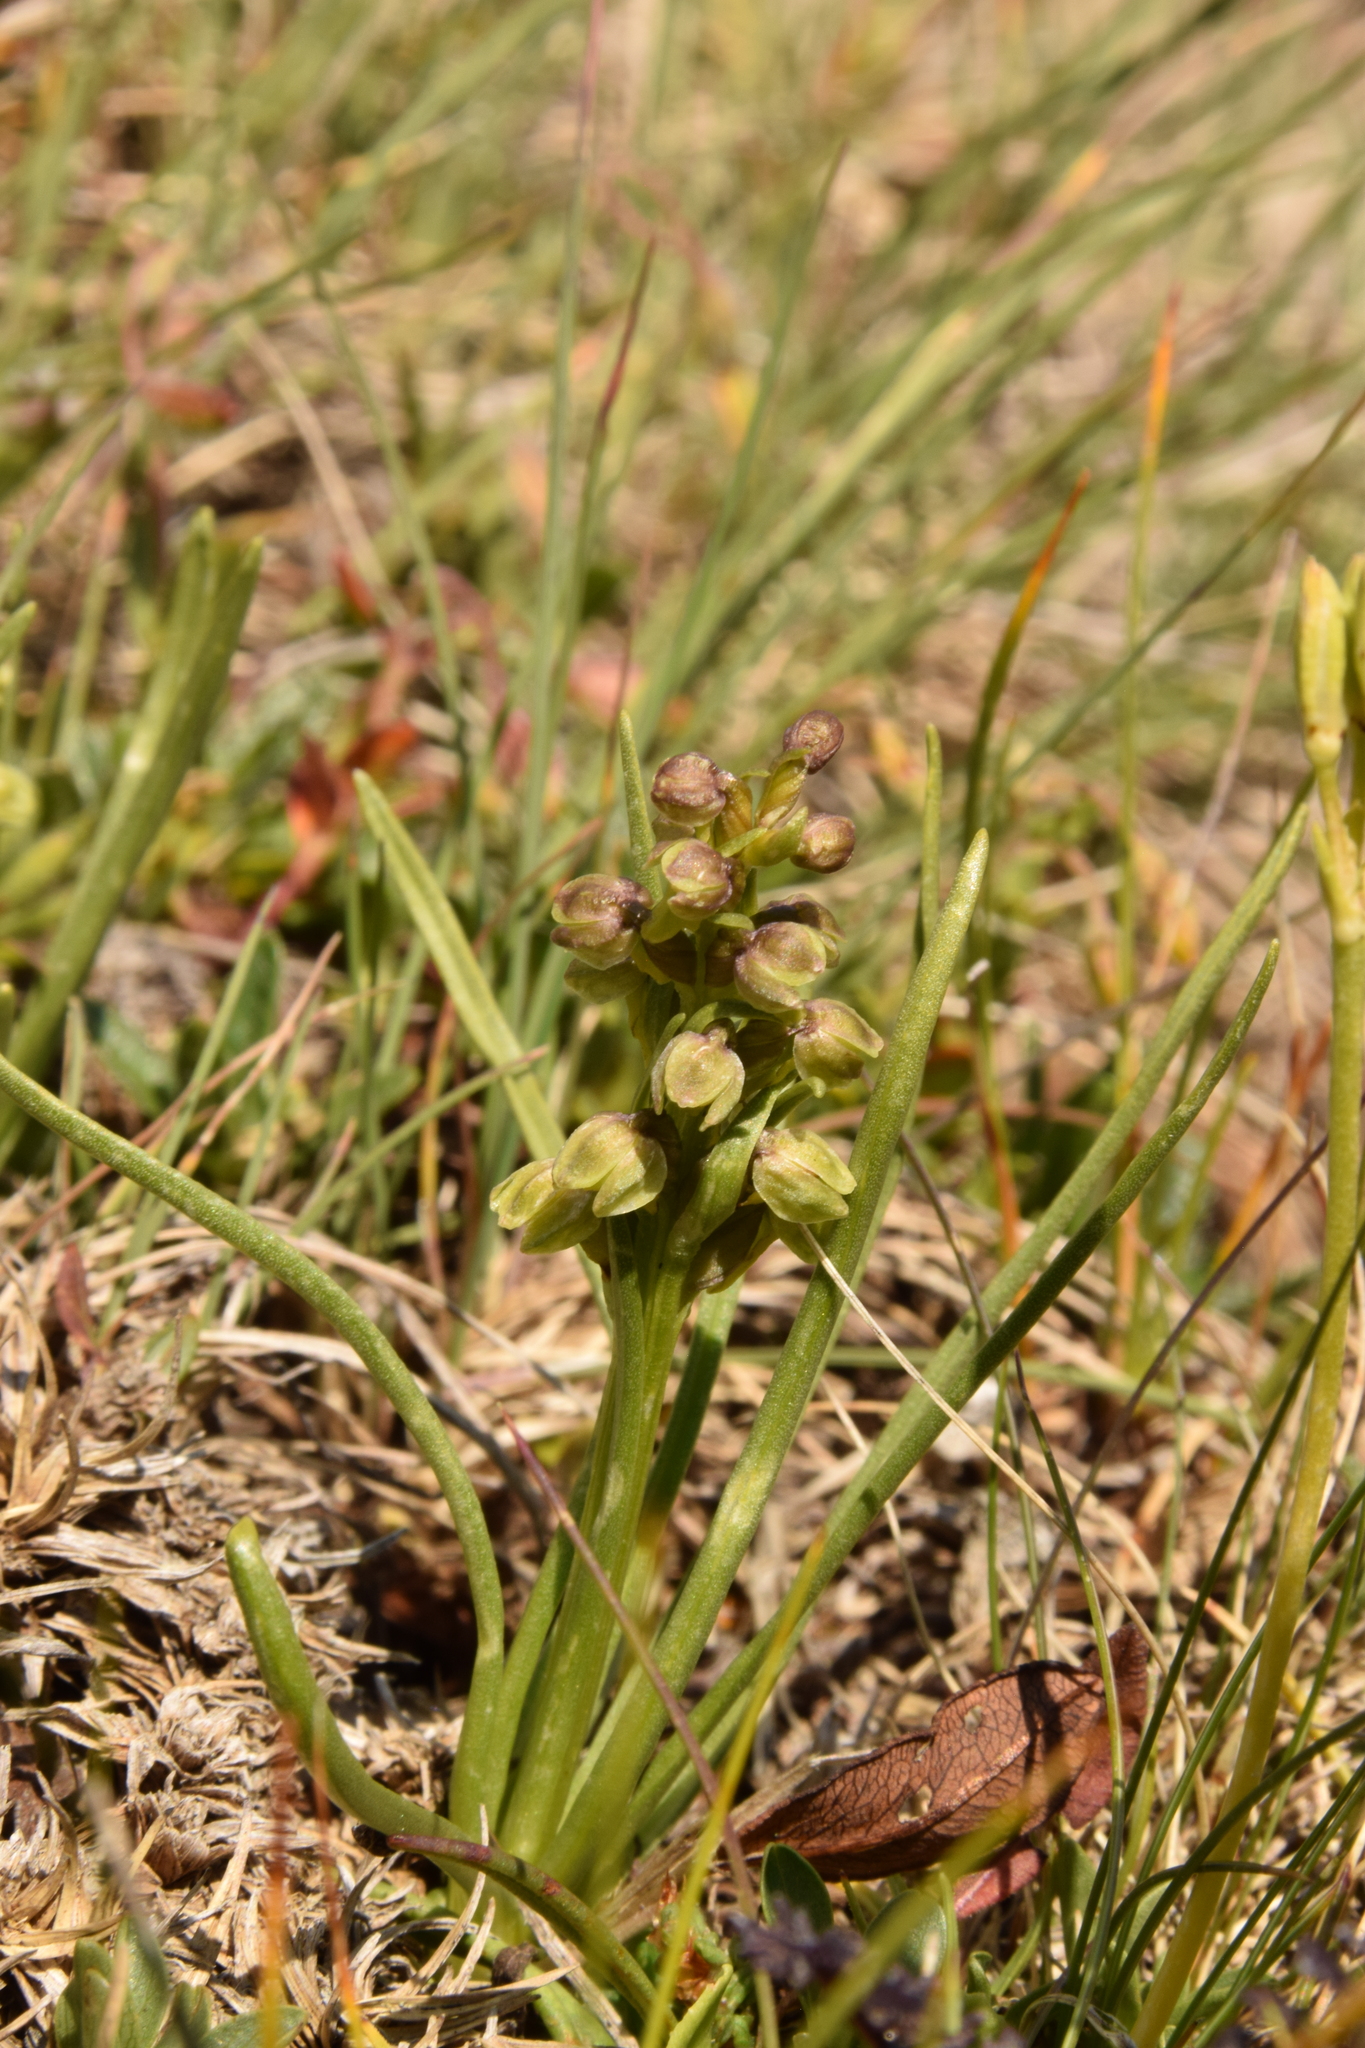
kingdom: Plantae
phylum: Tracheophyta
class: Liliopsida
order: Asparagales
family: Orchidaceae
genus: Chamorchis
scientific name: Chamorchis alpina
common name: Alpine chamorchis
